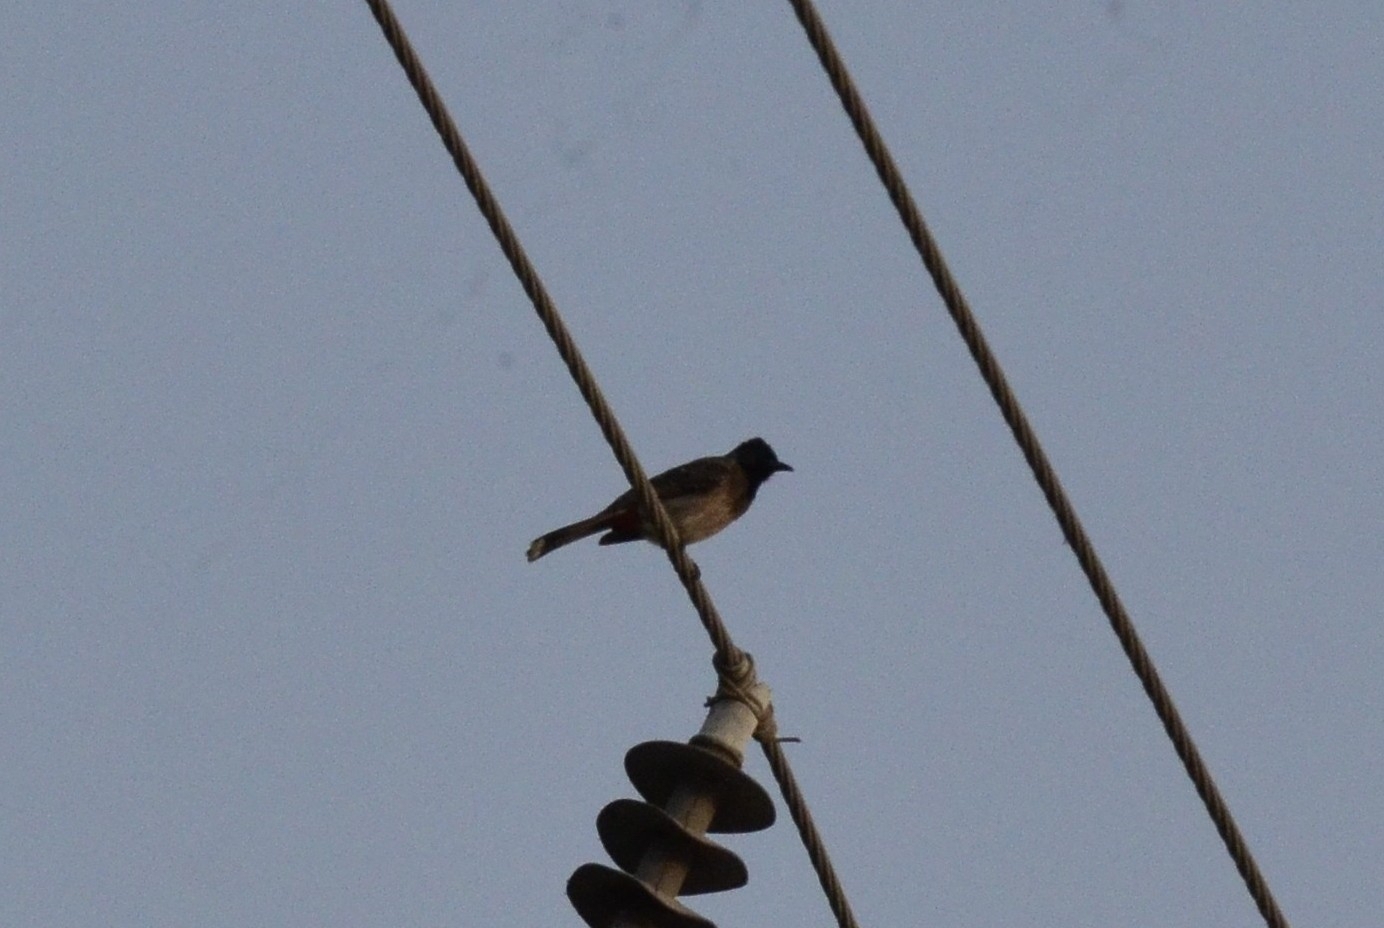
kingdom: Animalia
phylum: Chordata
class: Aves
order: Passeriformes
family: Pycnonotidae
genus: Pycnonotus
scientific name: Pycnonotus cafer
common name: Red-vented bulbul
